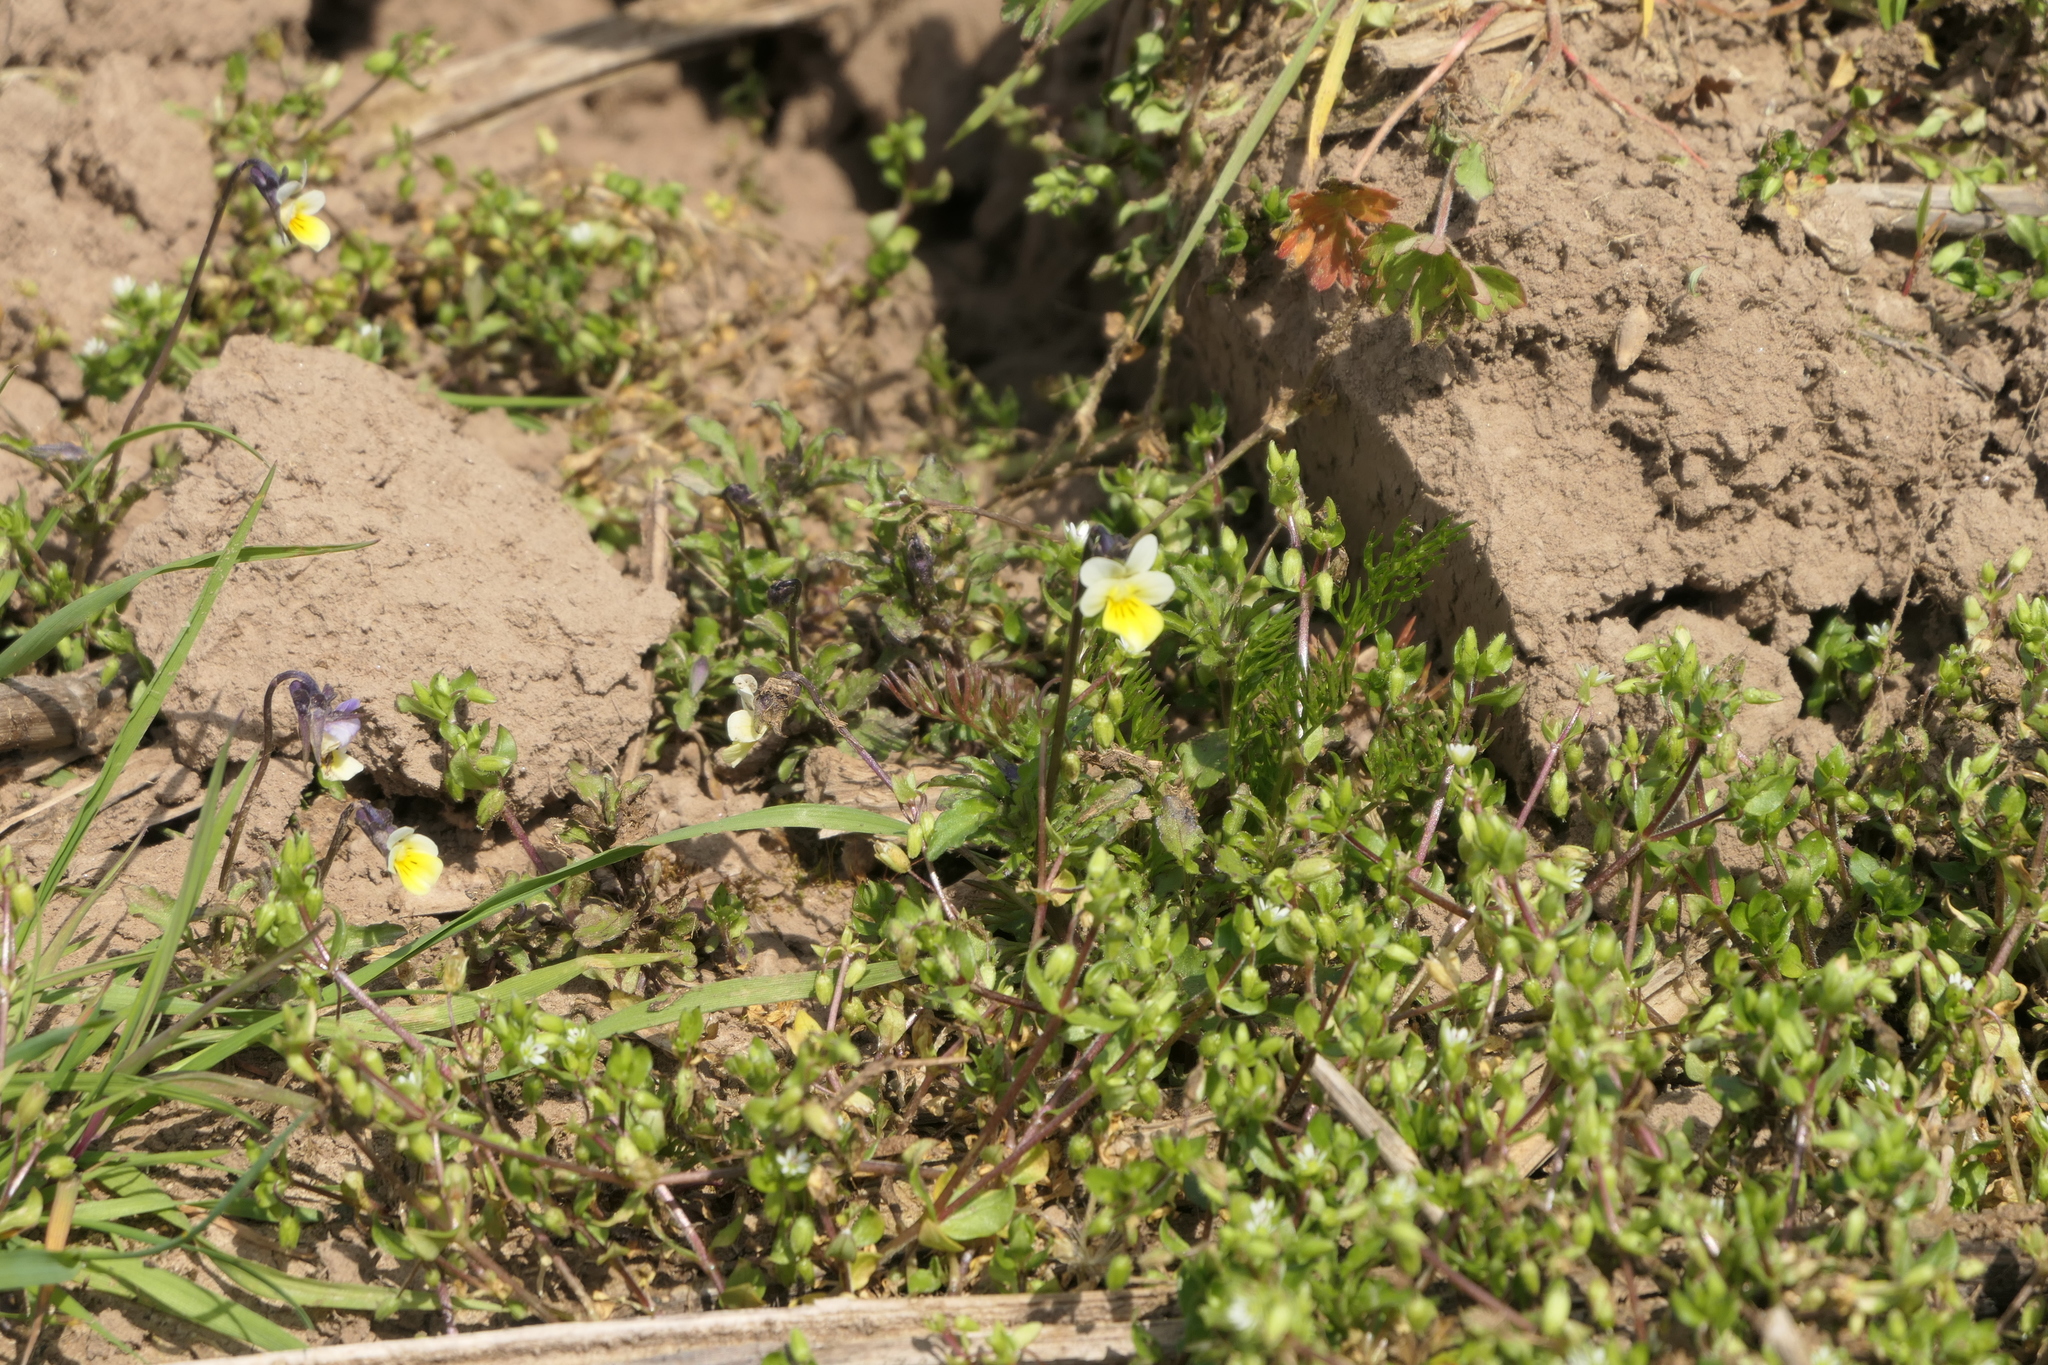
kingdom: Plantae
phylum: Tracheophyta
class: Magnoliopsida
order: Malpighiales
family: Violaceae
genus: Viola
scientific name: Viola arvensis
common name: Field pansy
